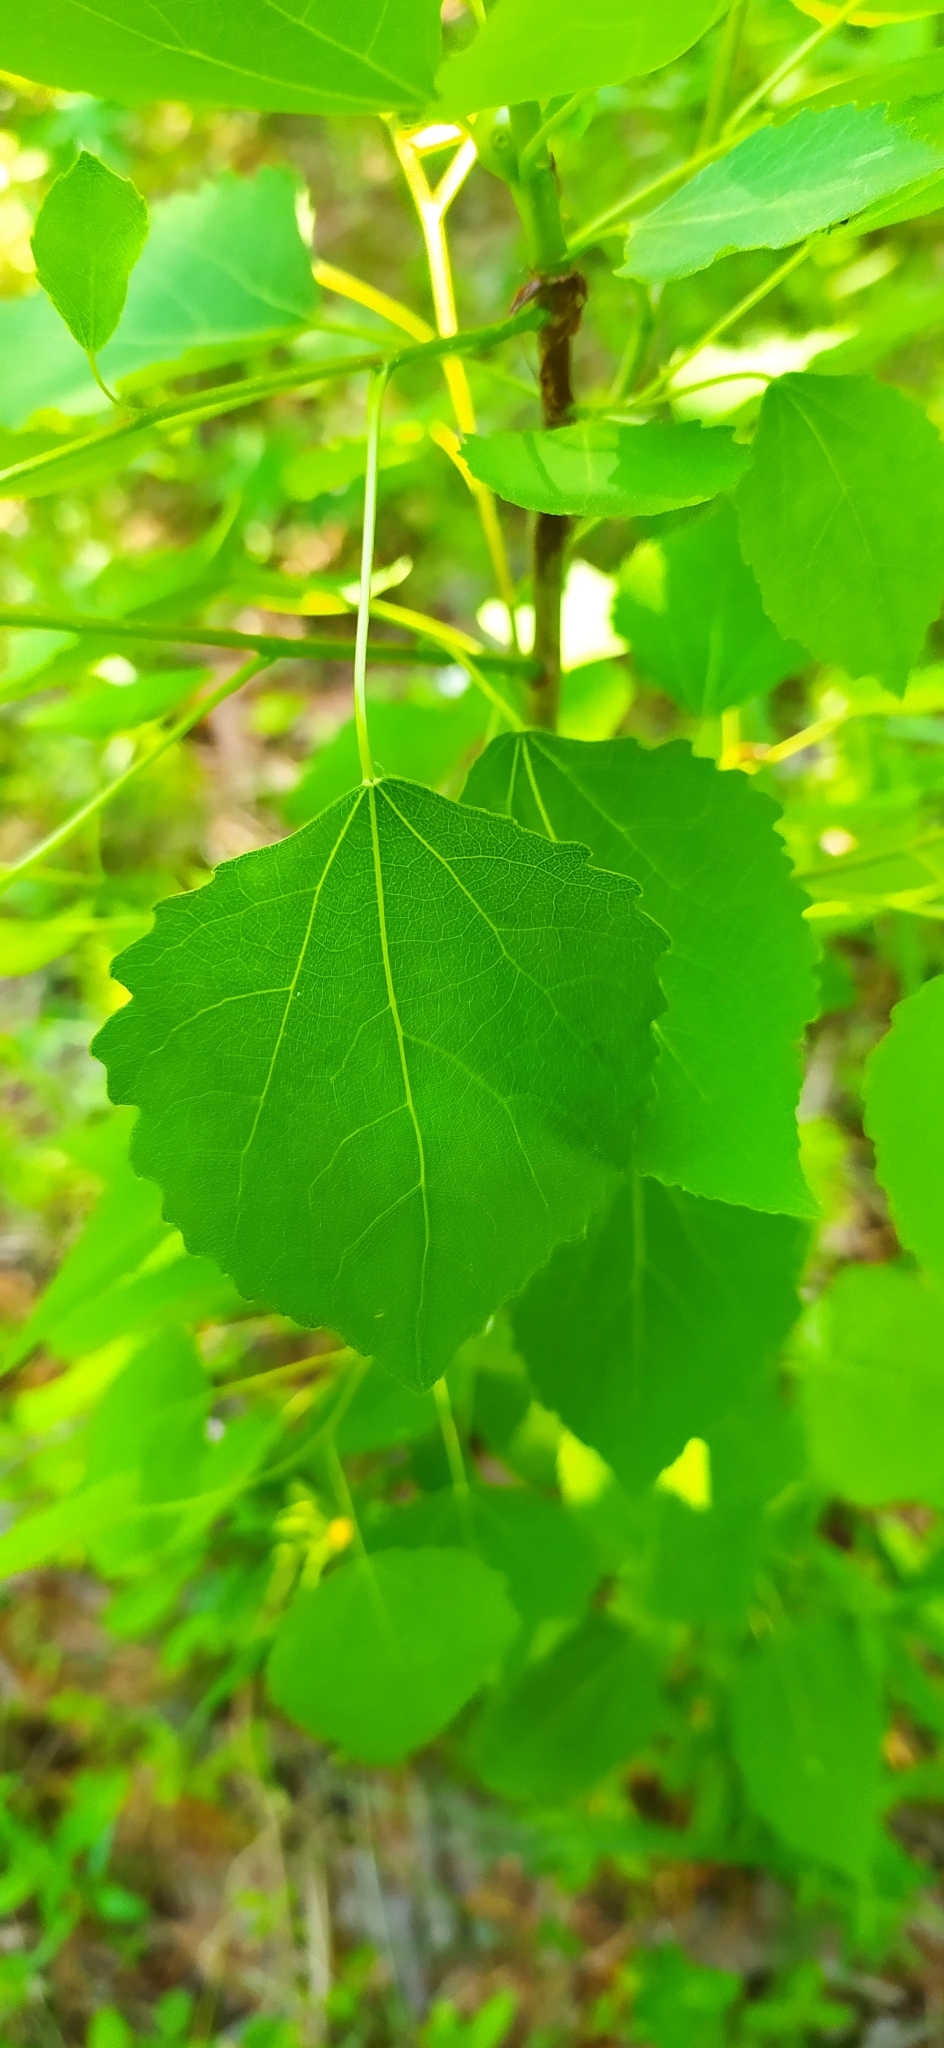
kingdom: Plantae
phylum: Tracheophyta
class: Magnoliopsida
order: Malpighiales
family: Salicaceae
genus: Populus
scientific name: Populus tremula
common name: European aspen
